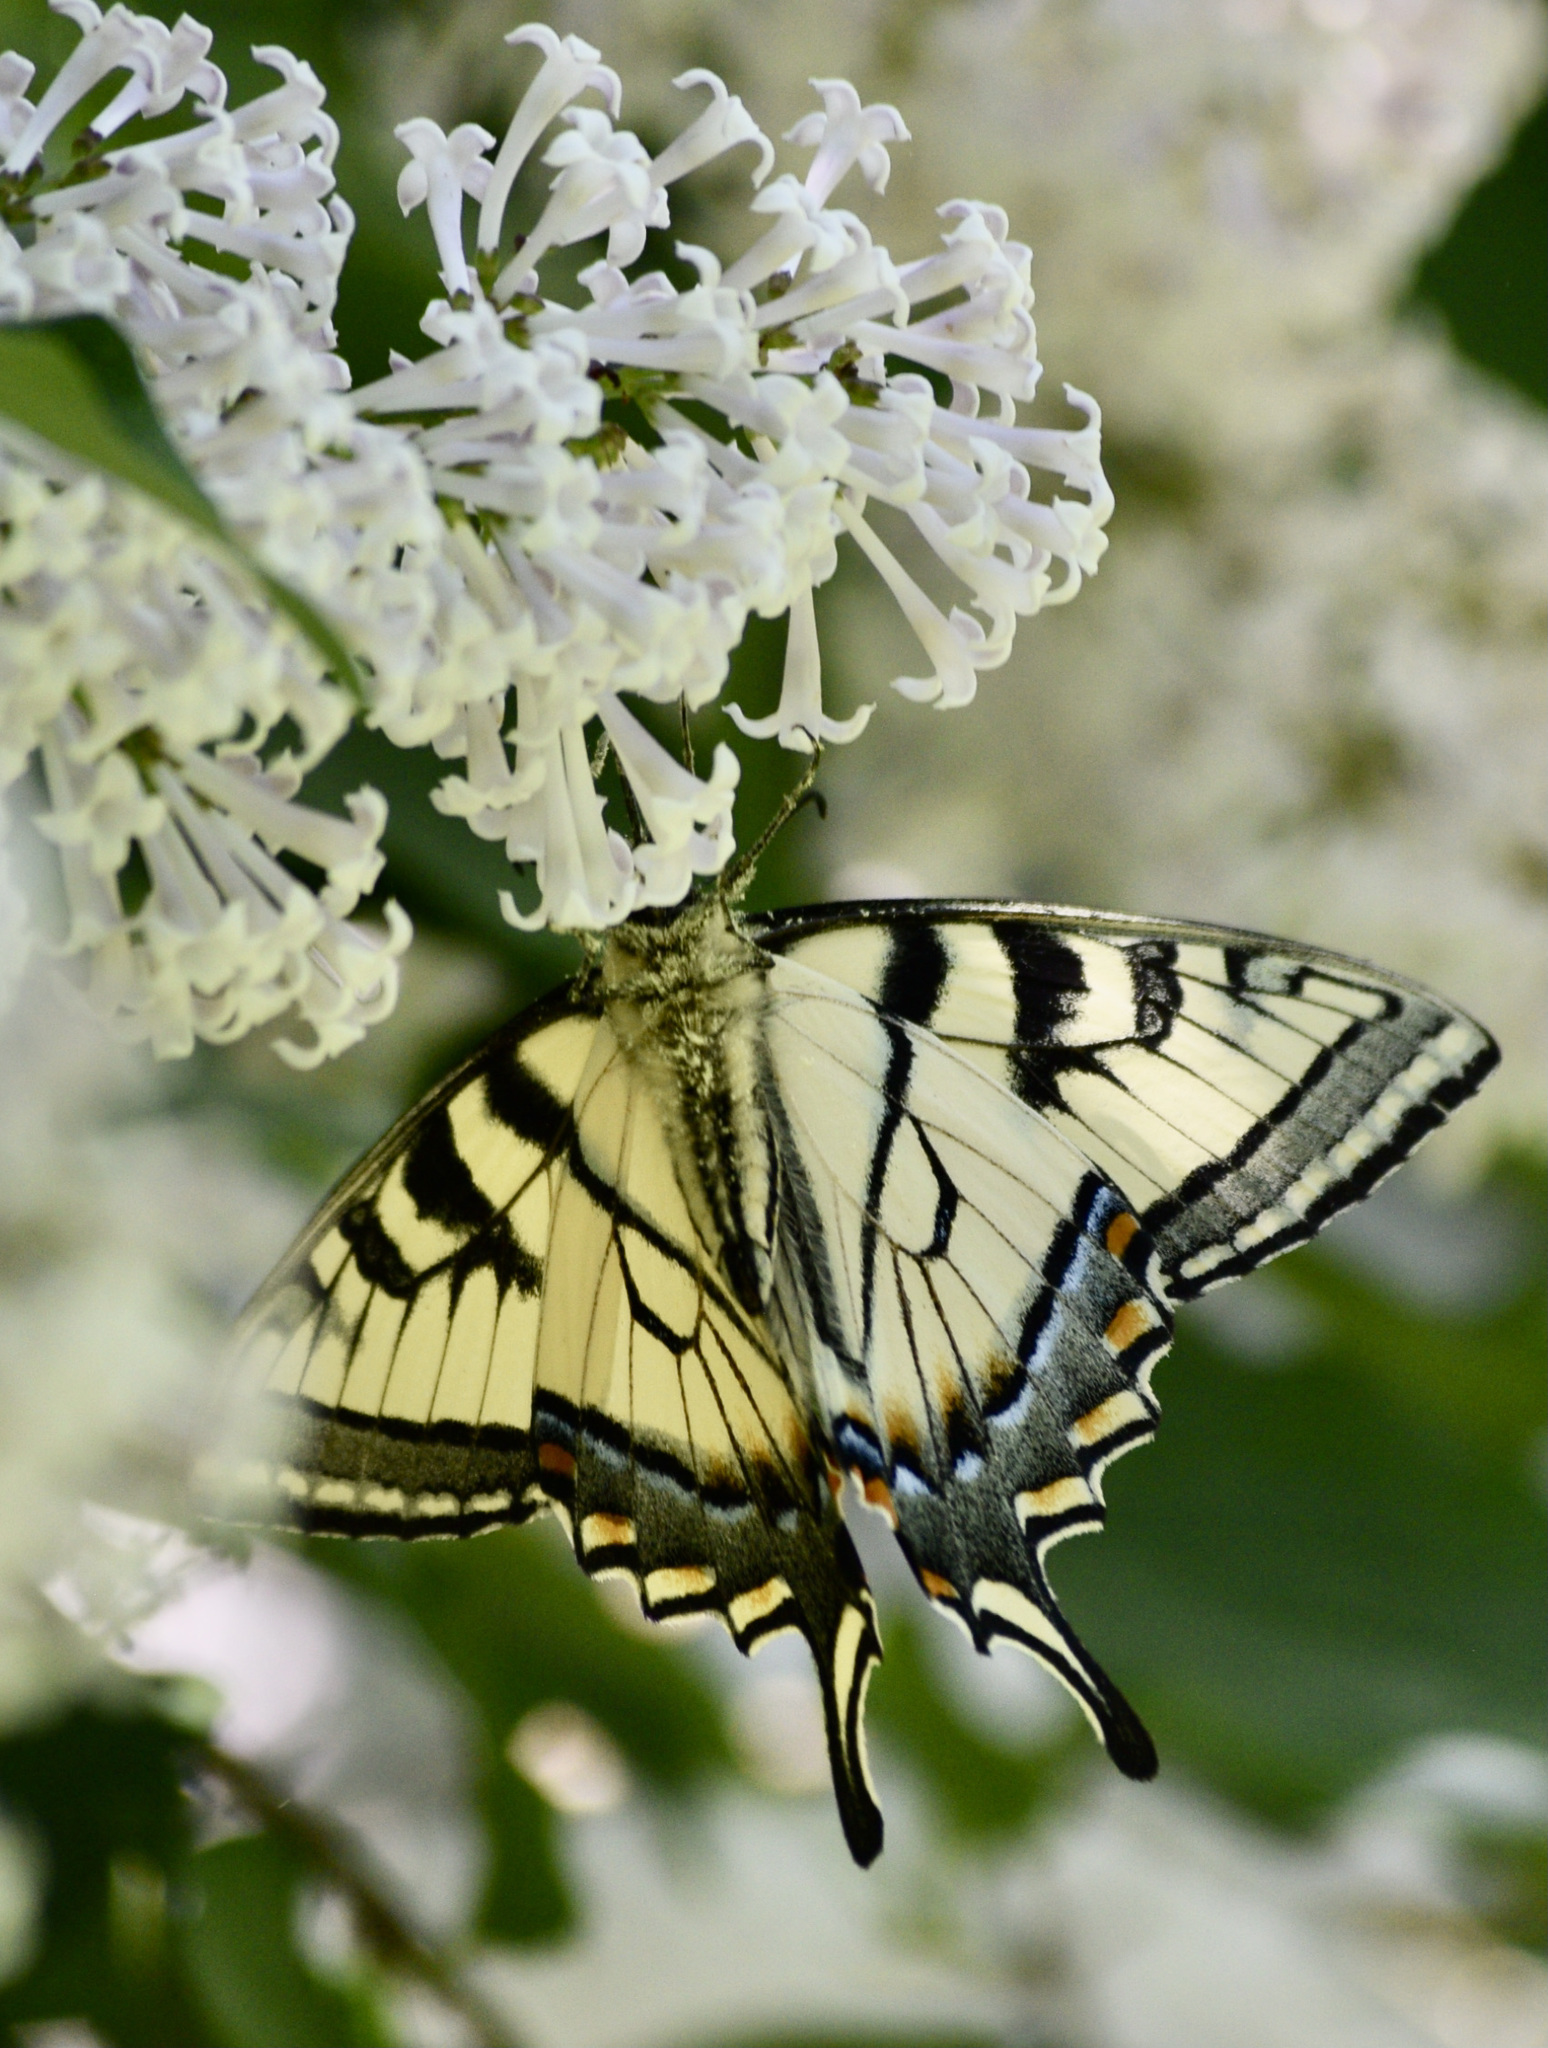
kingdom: Animalia
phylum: Arthropoda
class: Insecta
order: Lepidoptera
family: Papilionidae
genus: Papilio
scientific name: Papilio canadensis
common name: Canadian tiger swallowtail
